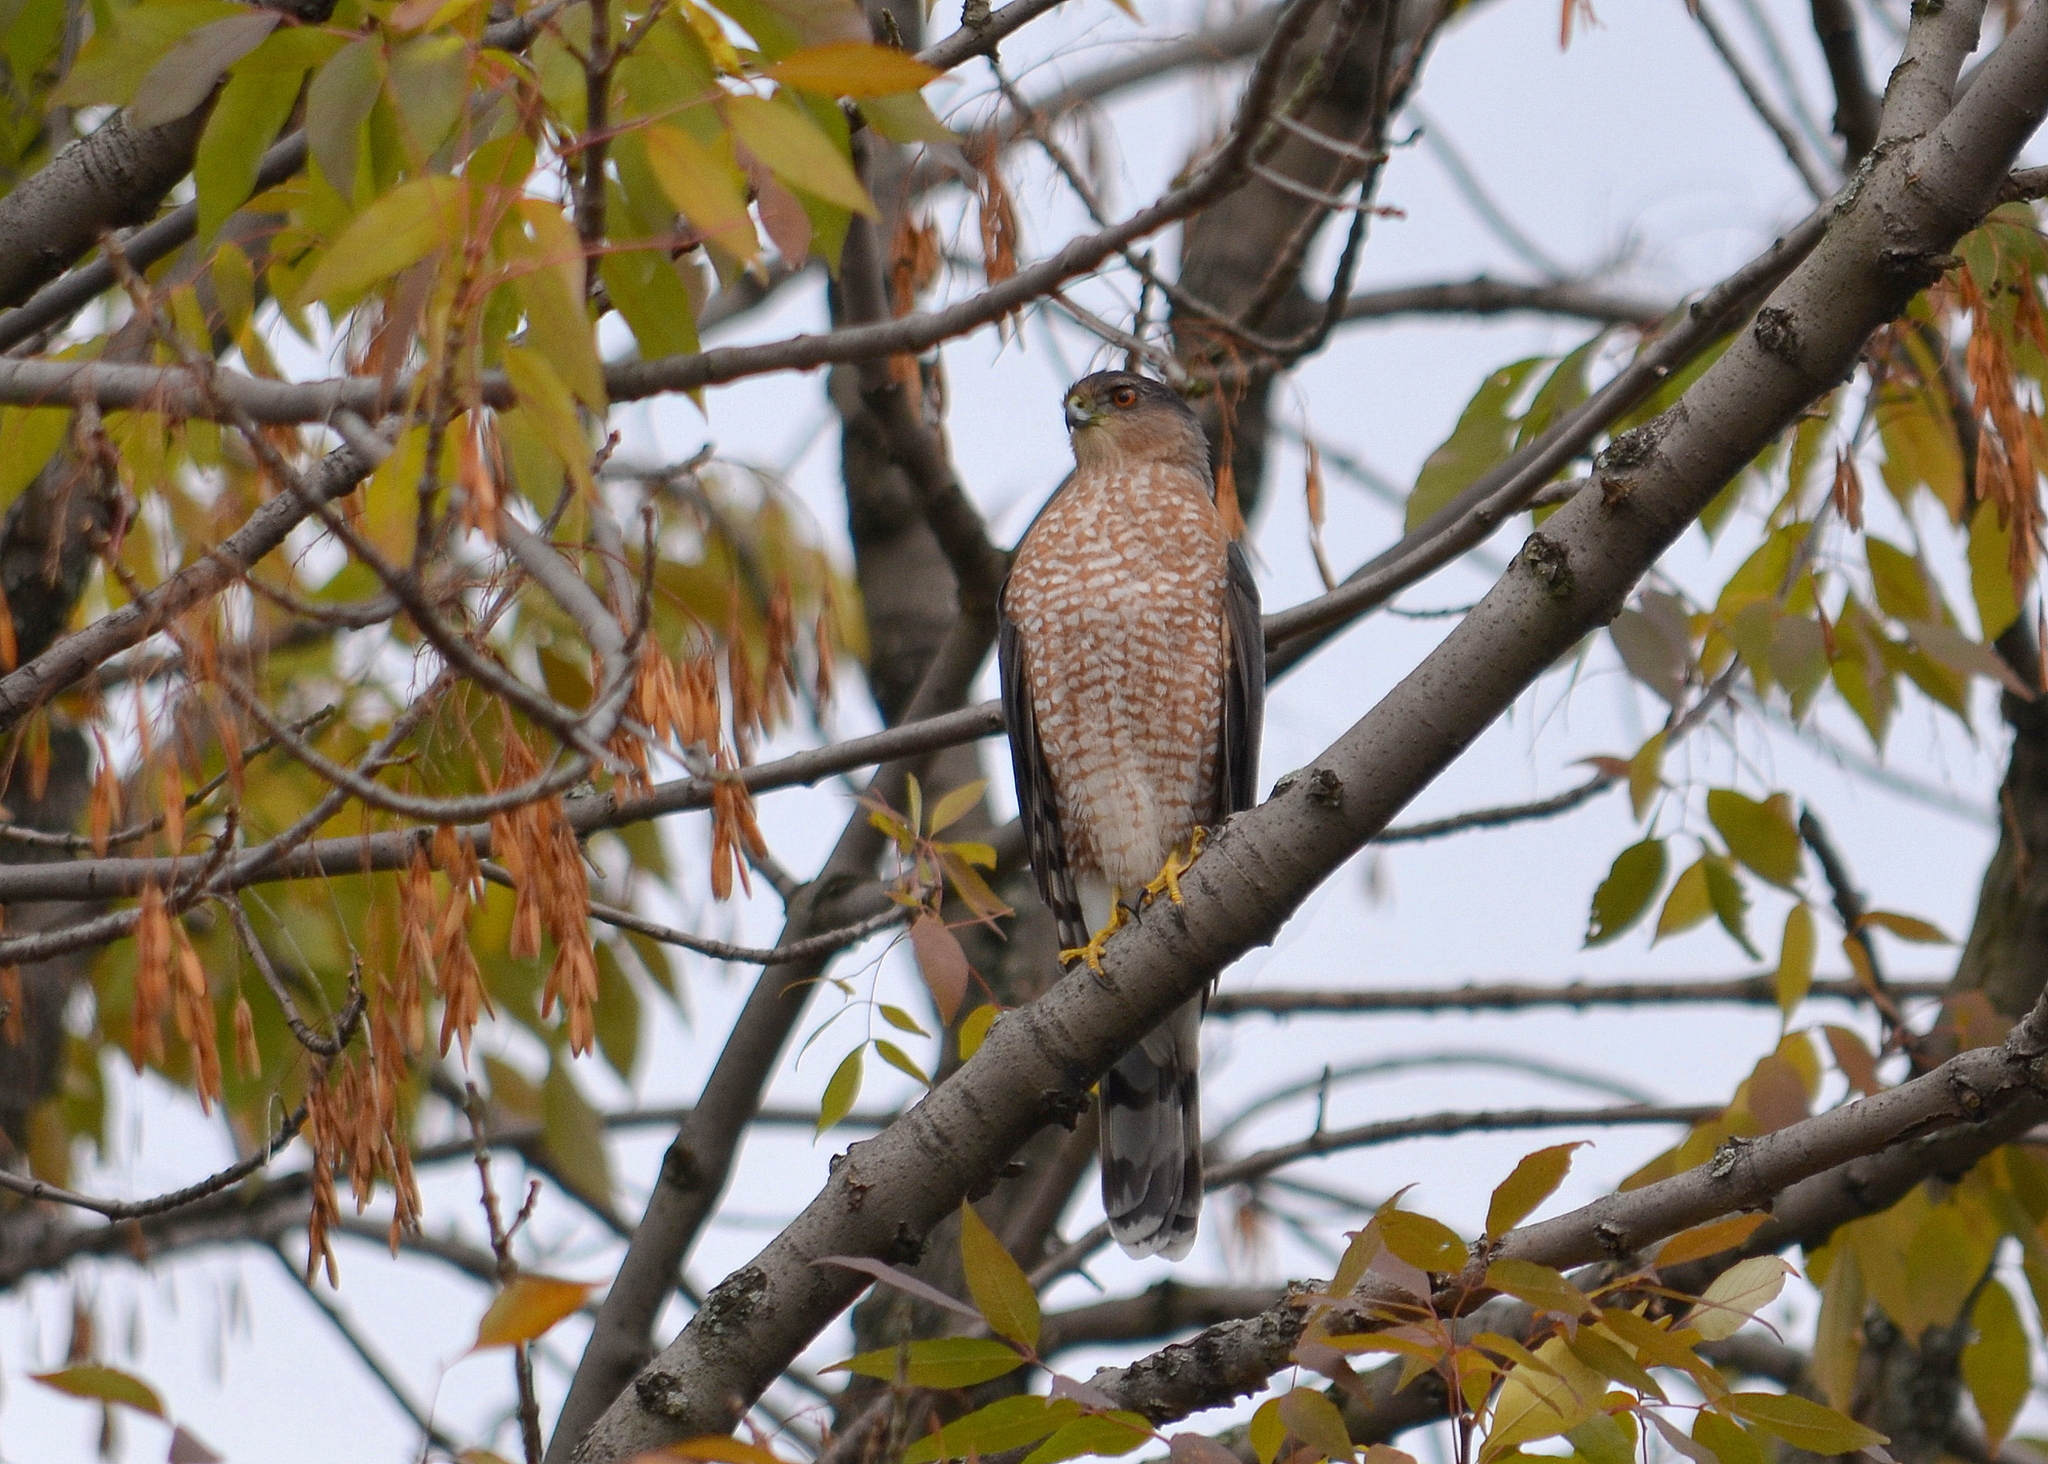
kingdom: Animalia
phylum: Chordata
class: Aves
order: Accipitriformes
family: Accipitridae
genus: Accipiter
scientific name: Accipiter cooperii
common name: Cooper's hawk
